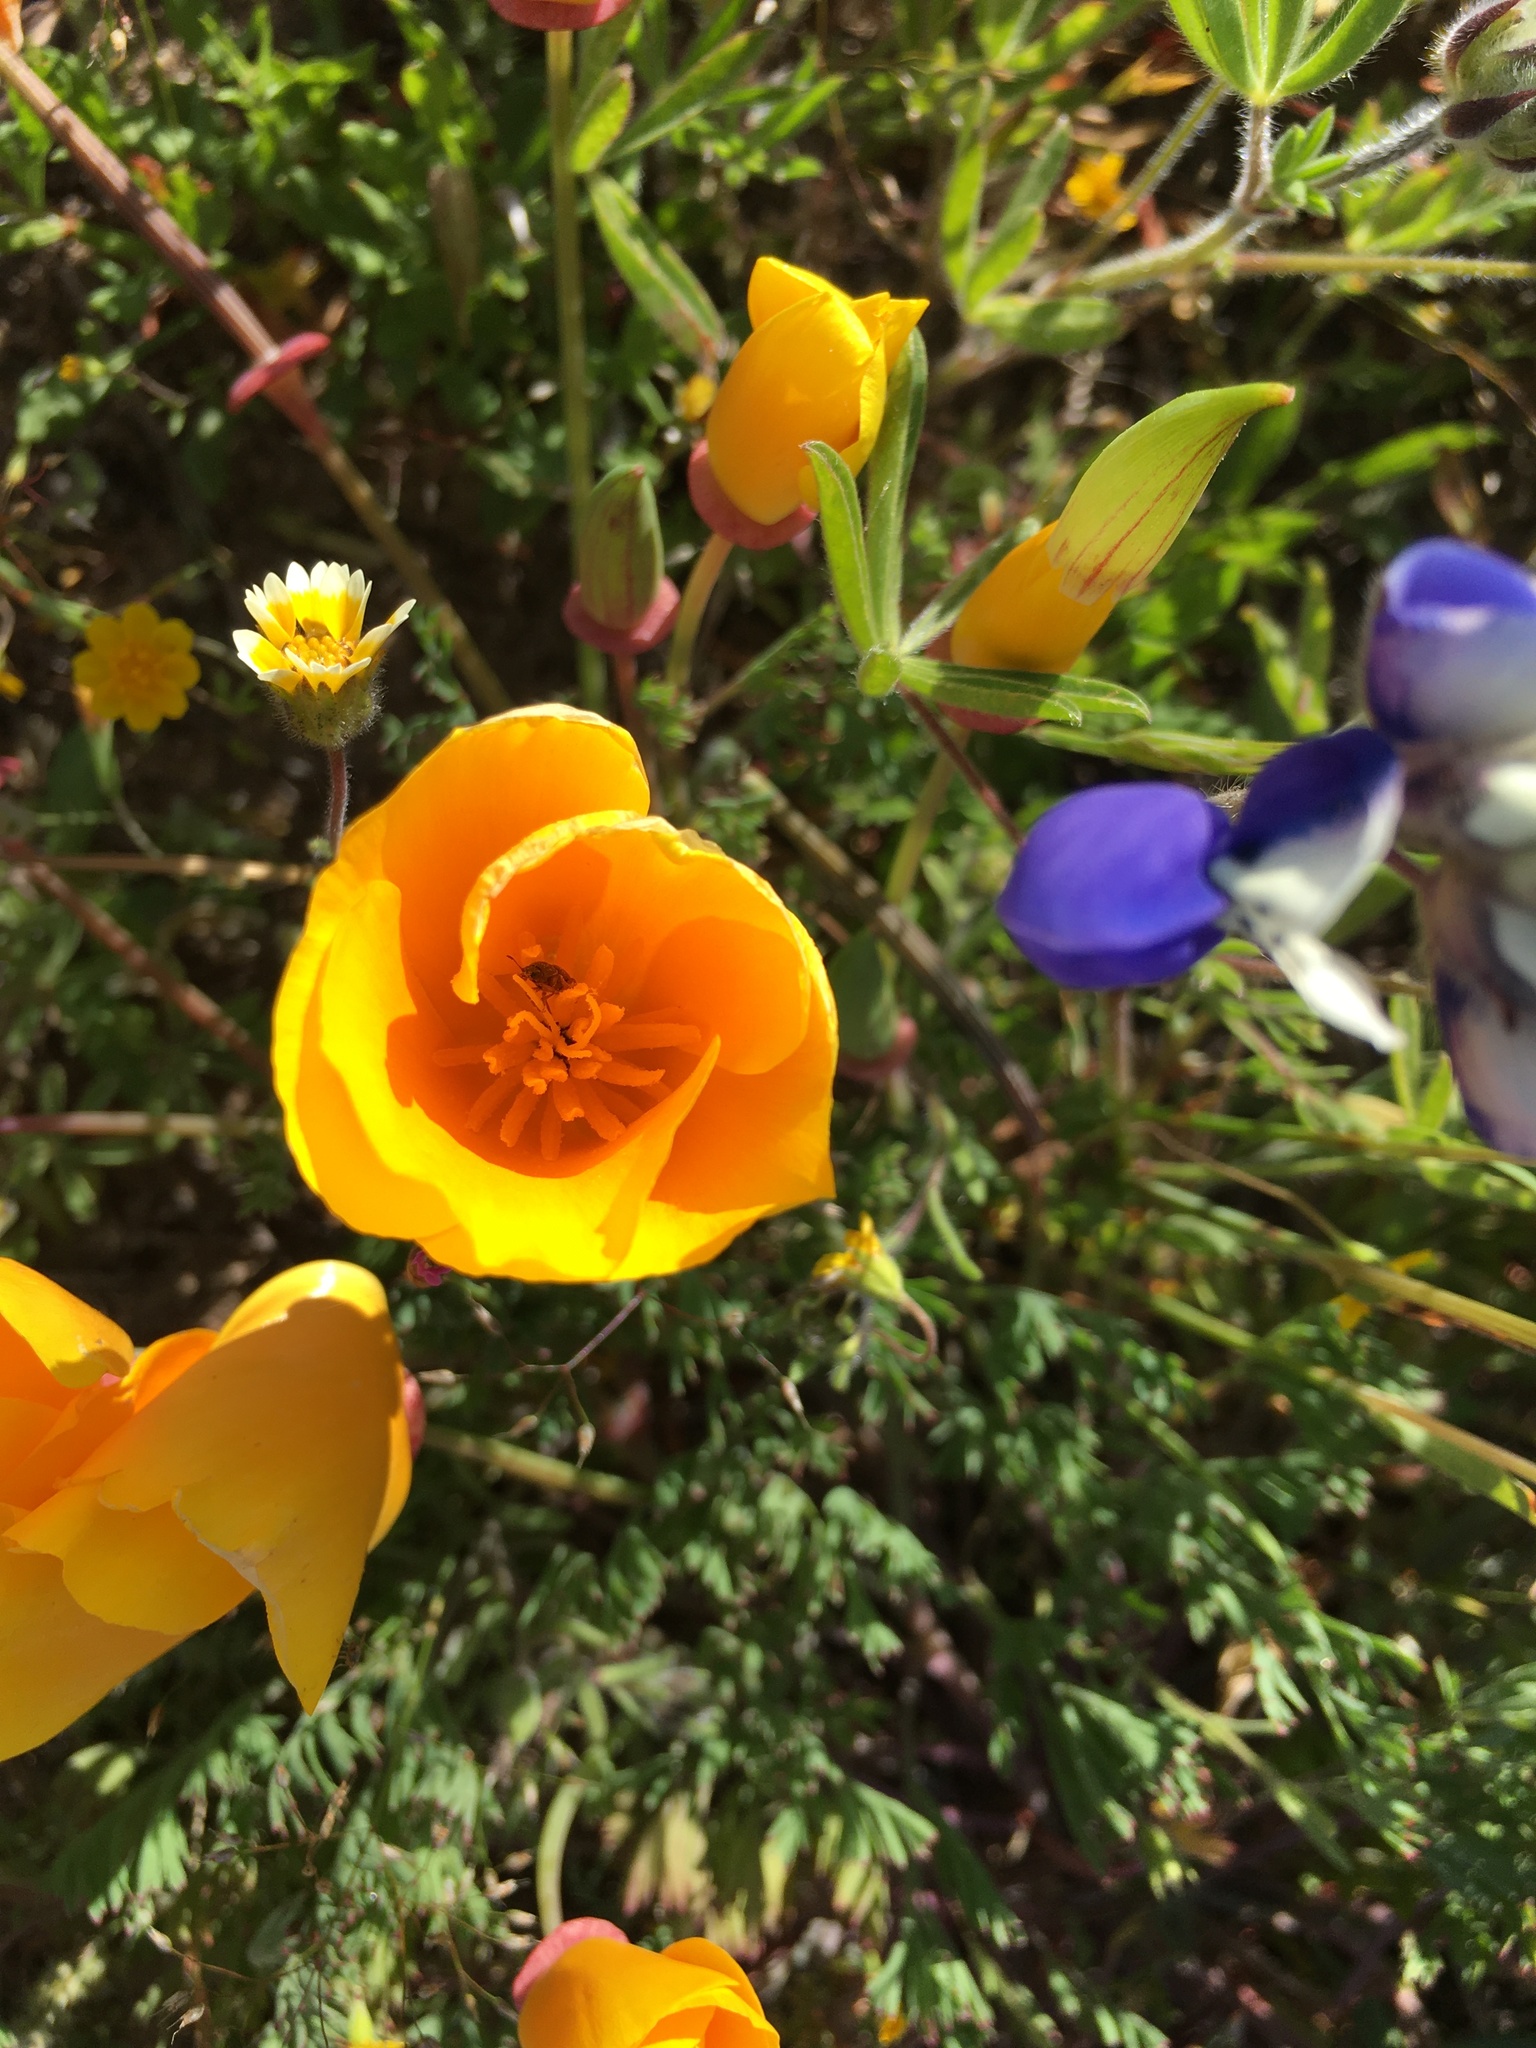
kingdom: Plantae
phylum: Tracheophyta
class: Magnoliopsida
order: Ranunculales
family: Papaveraceae
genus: Eschscholzia
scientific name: Eschscholzia californica
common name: California poppy
